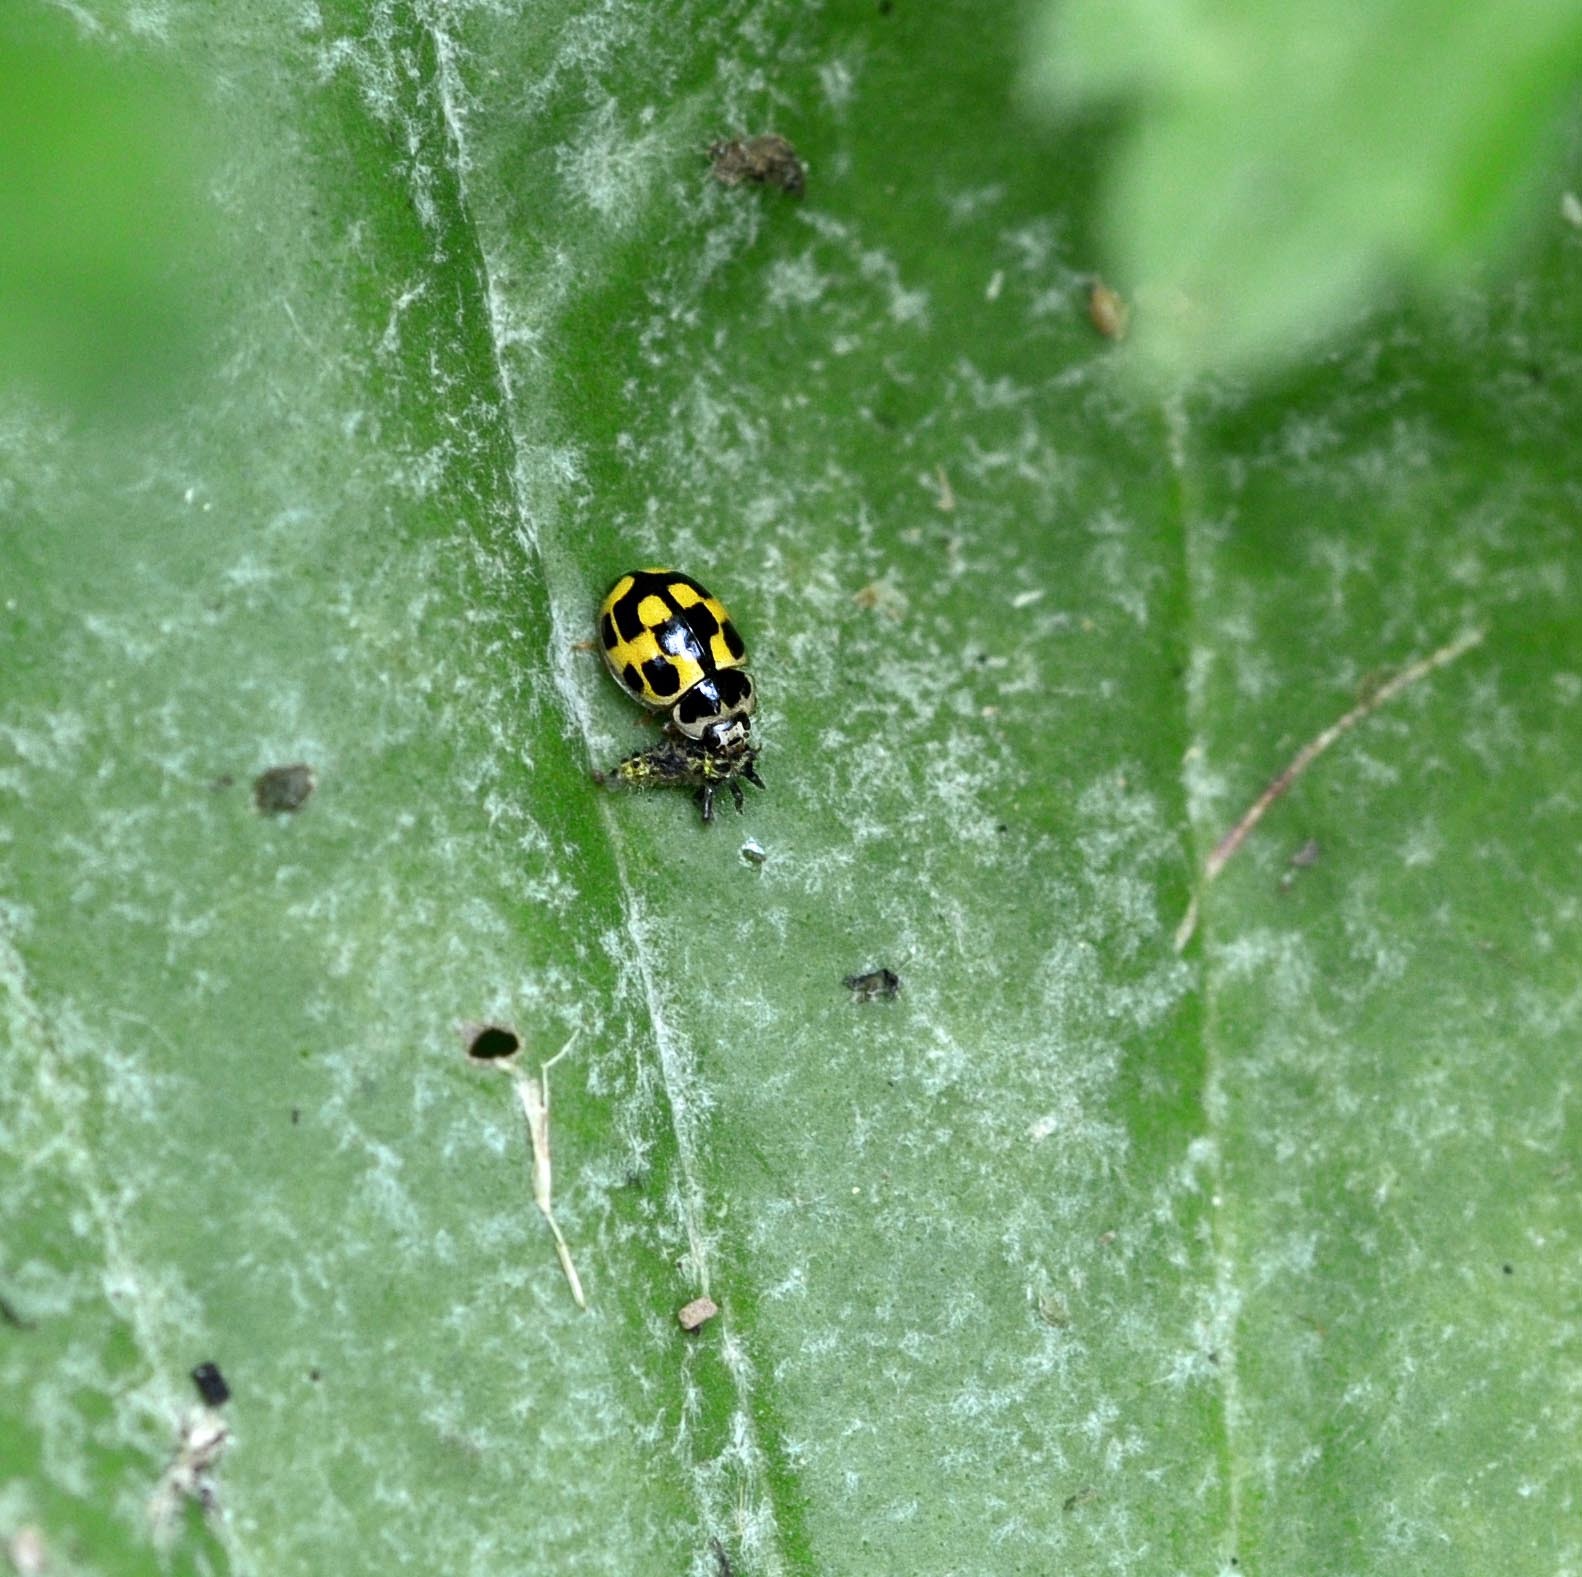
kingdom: Animalia
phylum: Arthropoda
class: Insecta
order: Coleoptera
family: Coccinellidae
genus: Propylaea
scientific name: Propylaea quatuordecimpunctata
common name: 14-spotted ladybird beetle
